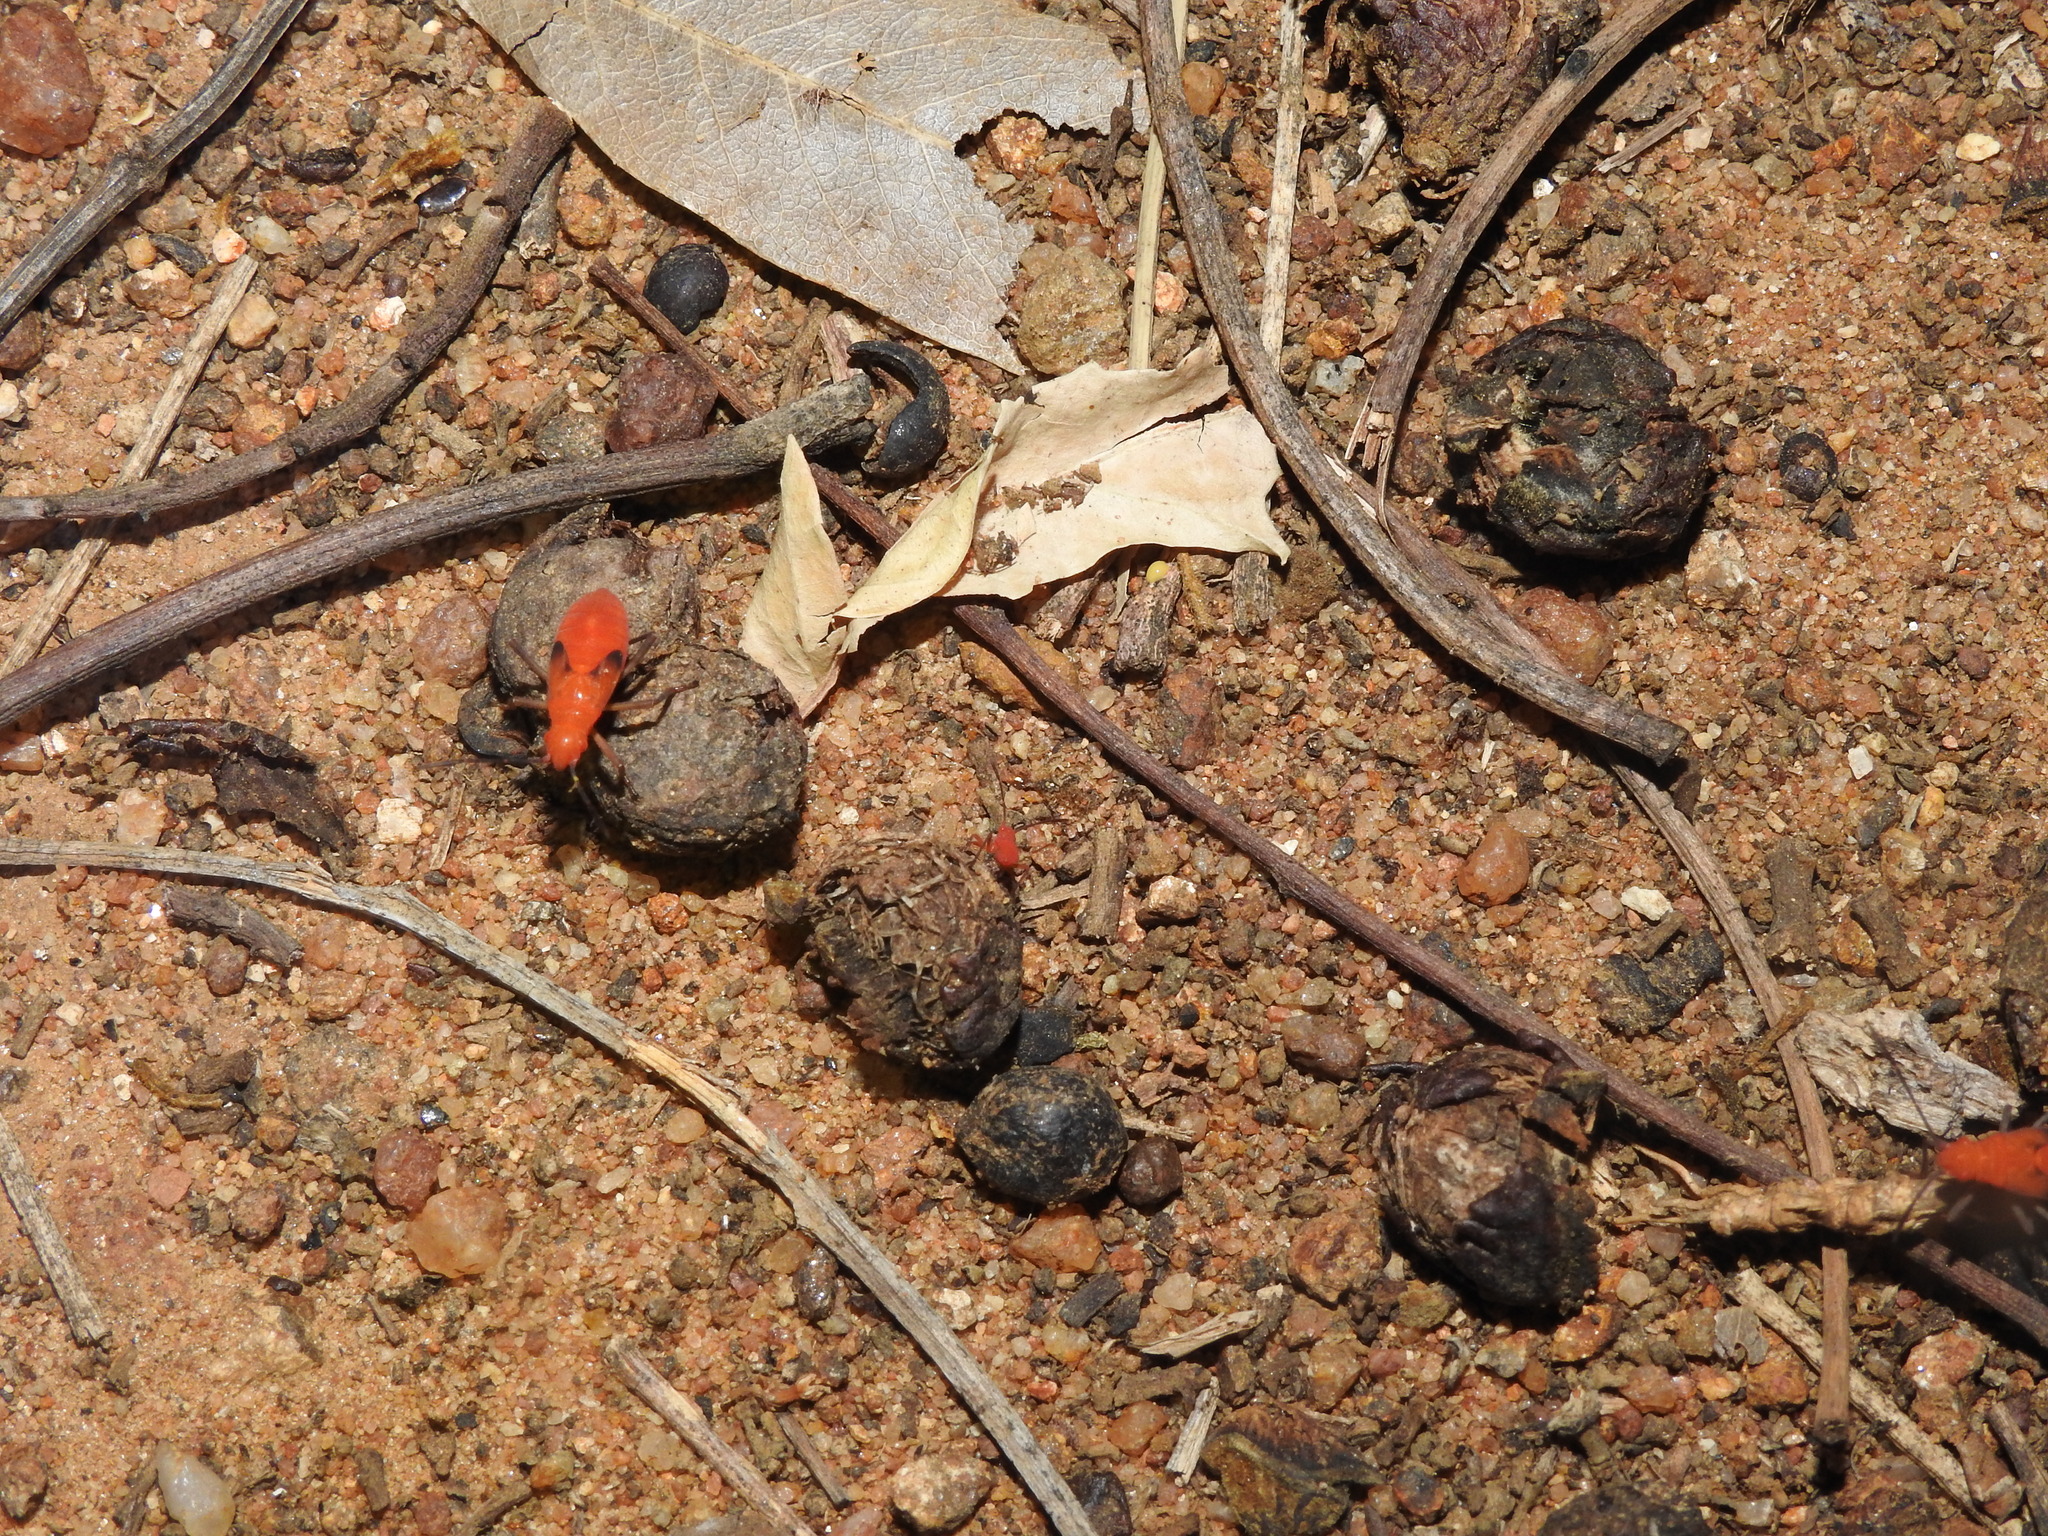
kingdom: Animalia
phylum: Arthropoda
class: Insecta
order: Hemiptera
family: Rhopalidae
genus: Boisea
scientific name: Boisea coimbatorensis
